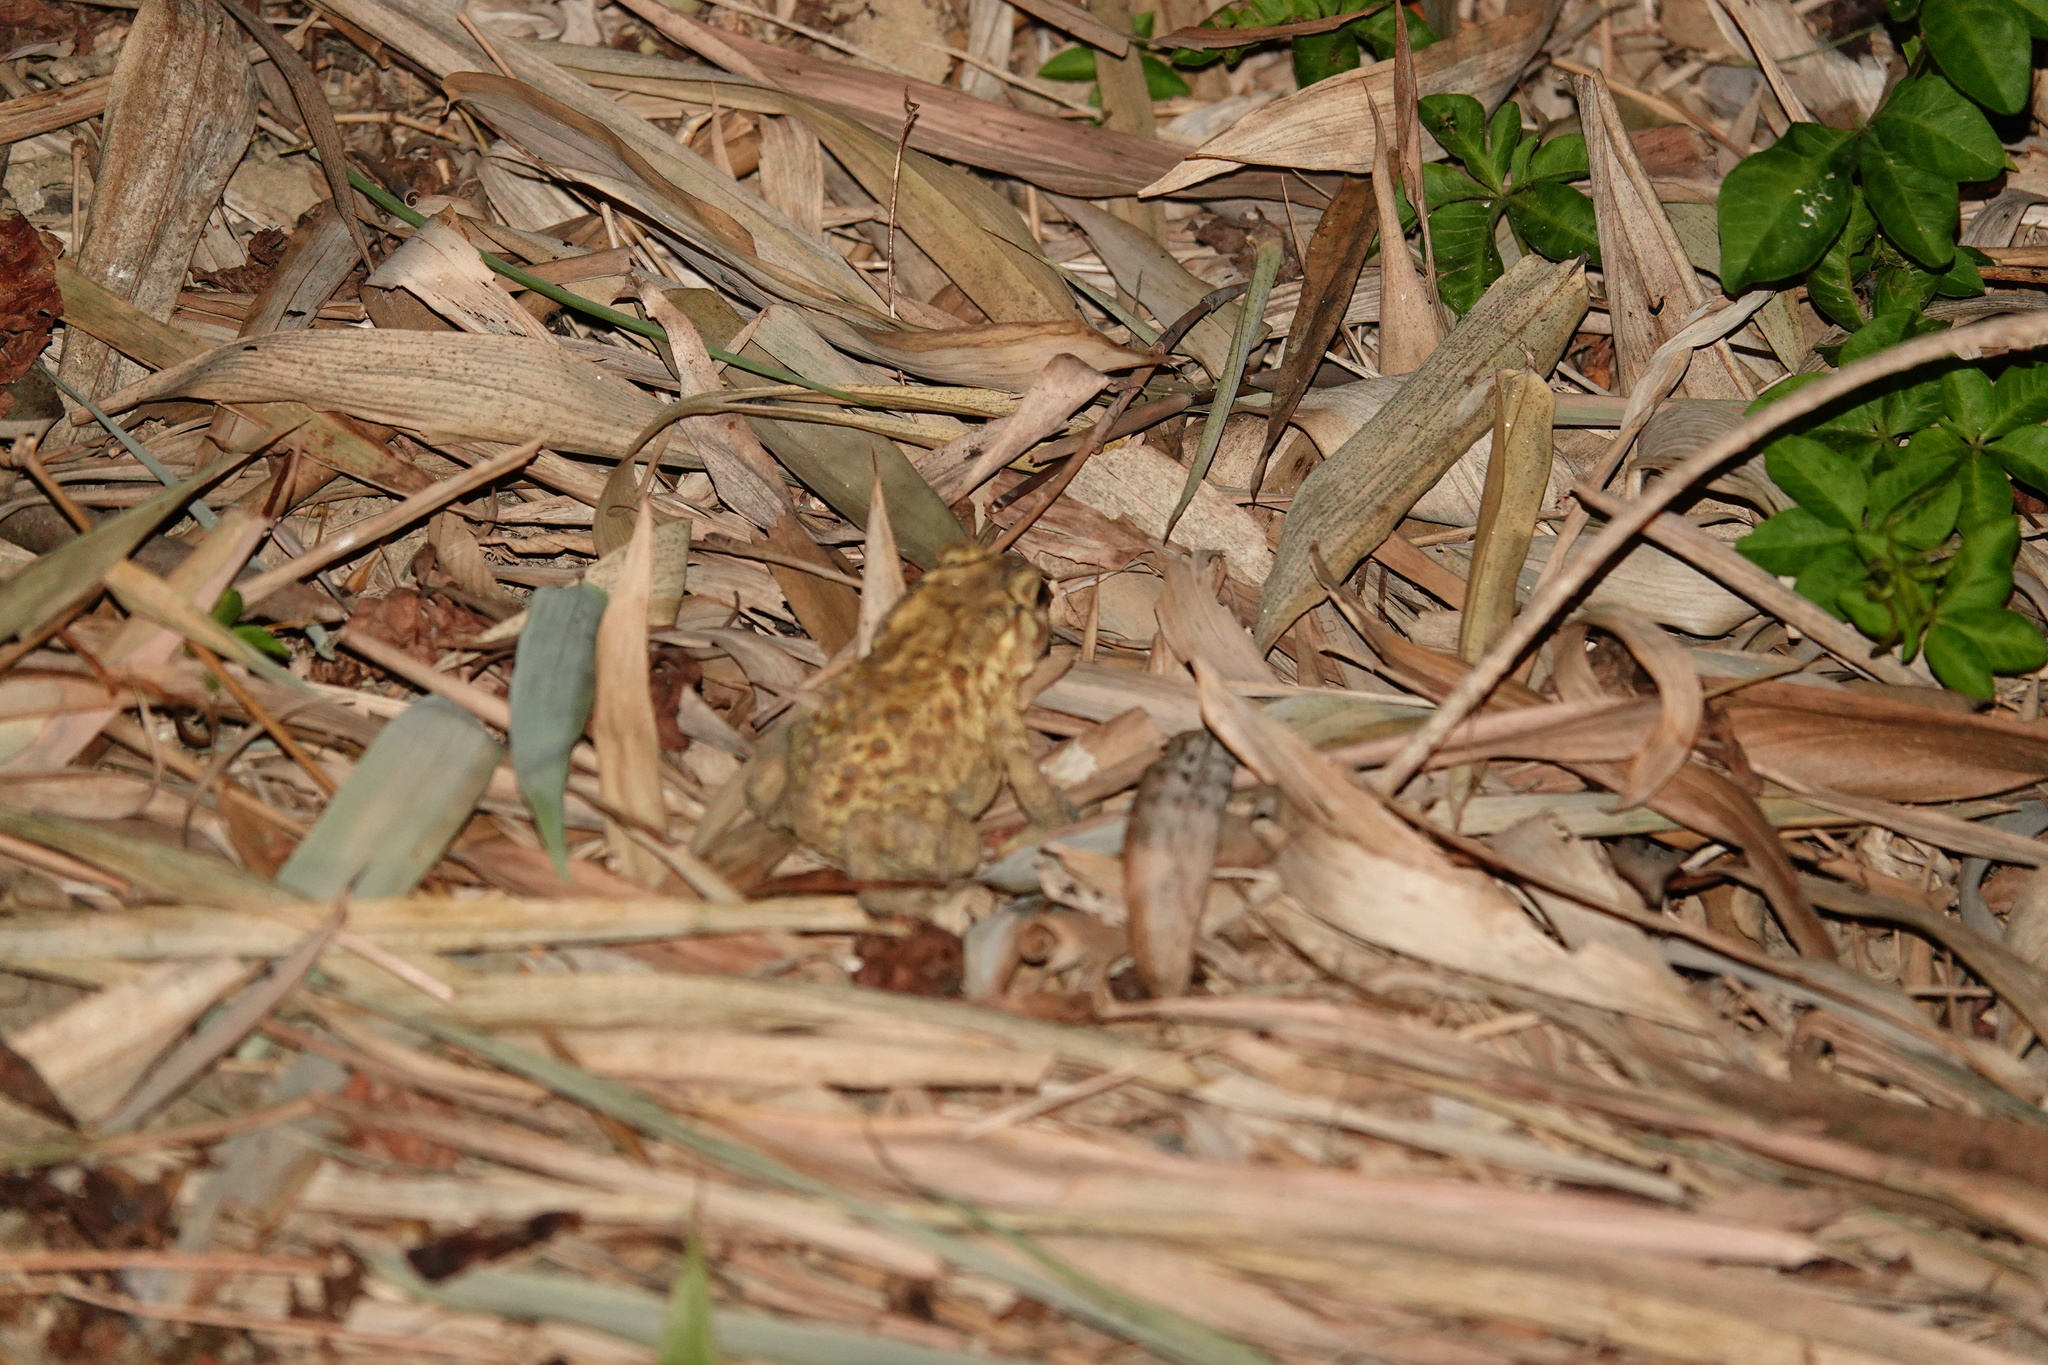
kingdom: Animalia
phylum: Chordata
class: Amphibia
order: Anura
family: Bufonidae
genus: Duttaphrynus
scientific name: Duttaphrynus melanostictus
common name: Common sunda toad
